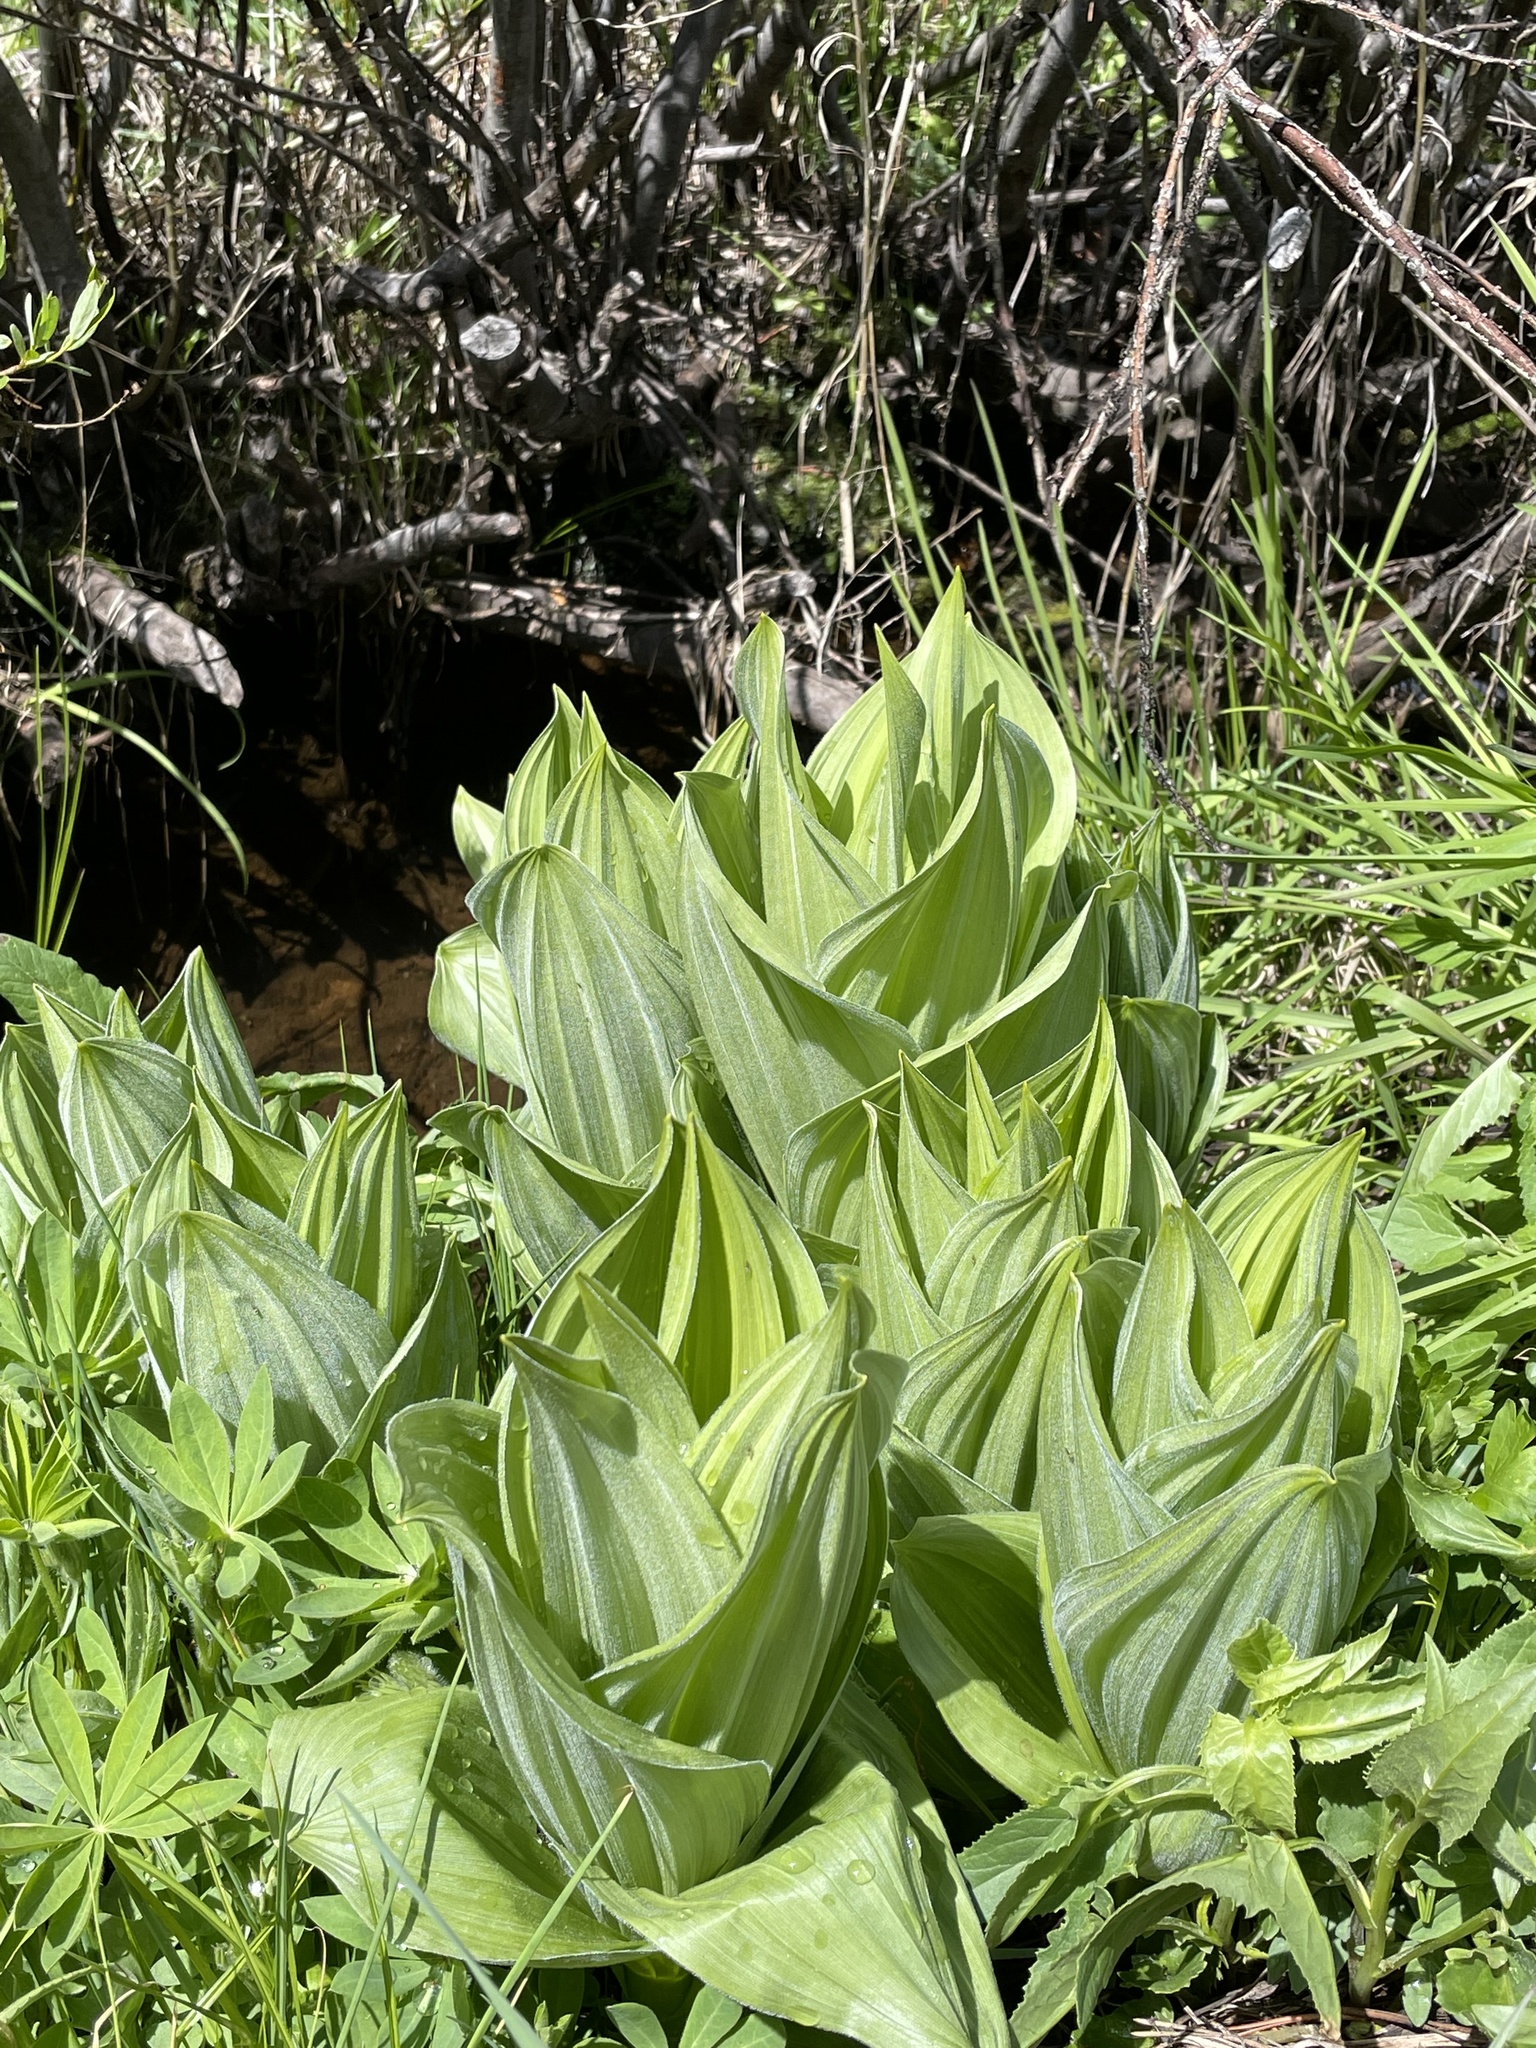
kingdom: Plantae
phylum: Tracheophyta
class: Liliopsida
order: Liliales
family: Melanthiaceae
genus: Veratrum
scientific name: Veratrum californicum
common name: California veratrum
